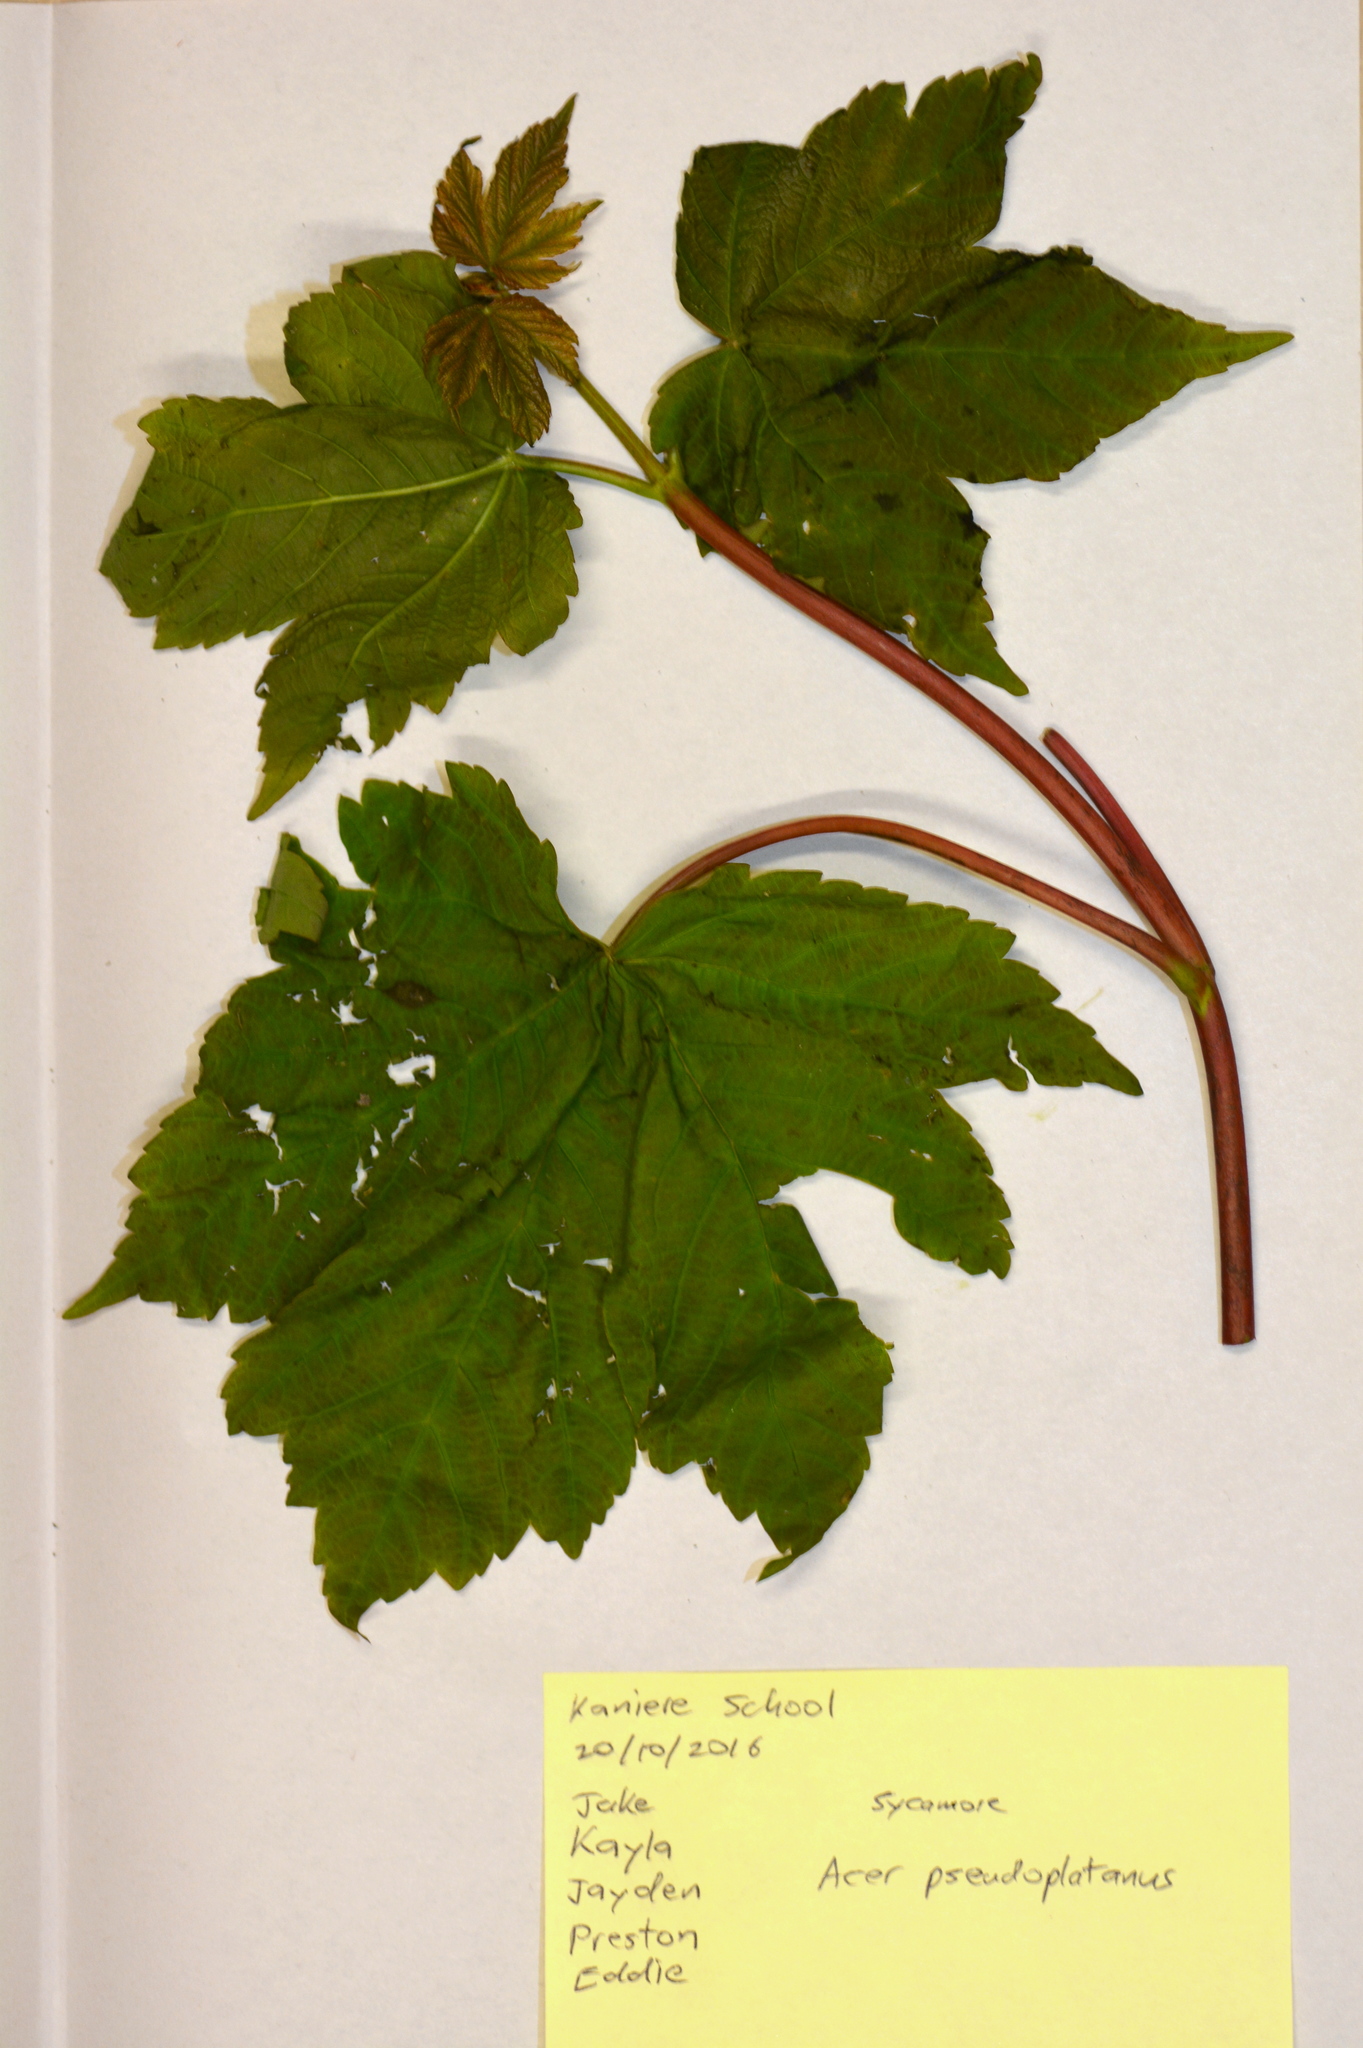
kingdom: Plantae
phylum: Tracheophyta
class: Magnoliopsida
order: Sapindales
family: Sapindaceae
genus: Acer
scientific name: Acer pseudoplatanus
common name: Sycamore
